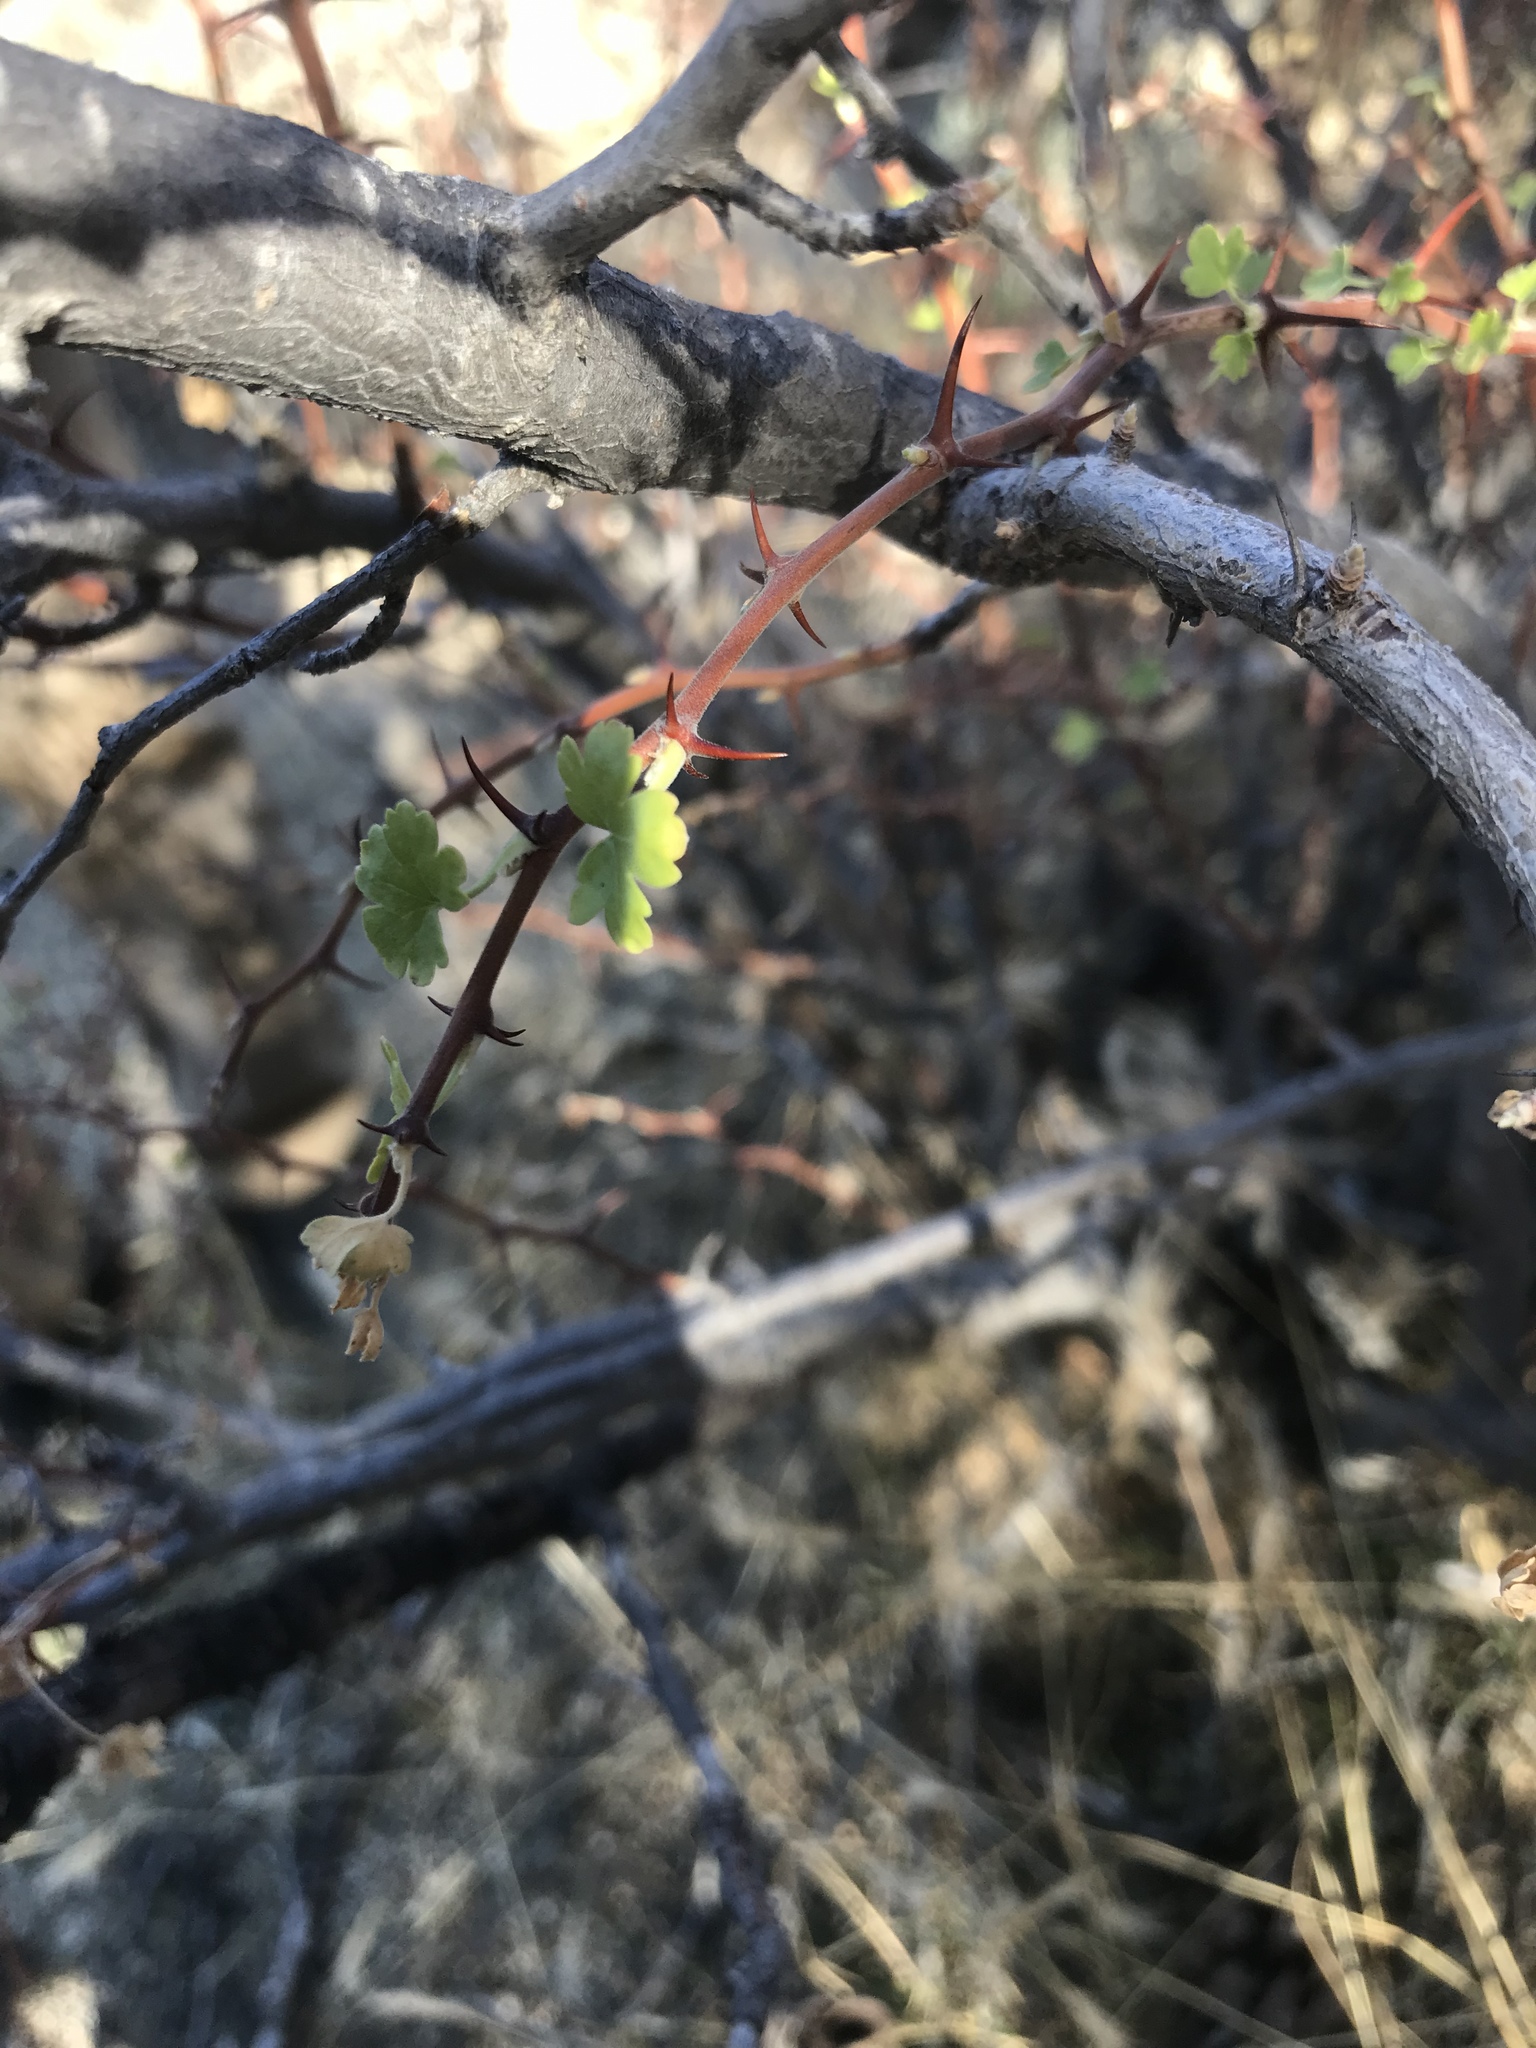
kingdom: Plantae
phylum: Tracheophyta
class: Magnoliopsida
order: Saxifragales
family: Grossulariaceae
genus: Ribes
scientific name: Ribes quercetorum
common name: Oak gooseberry
